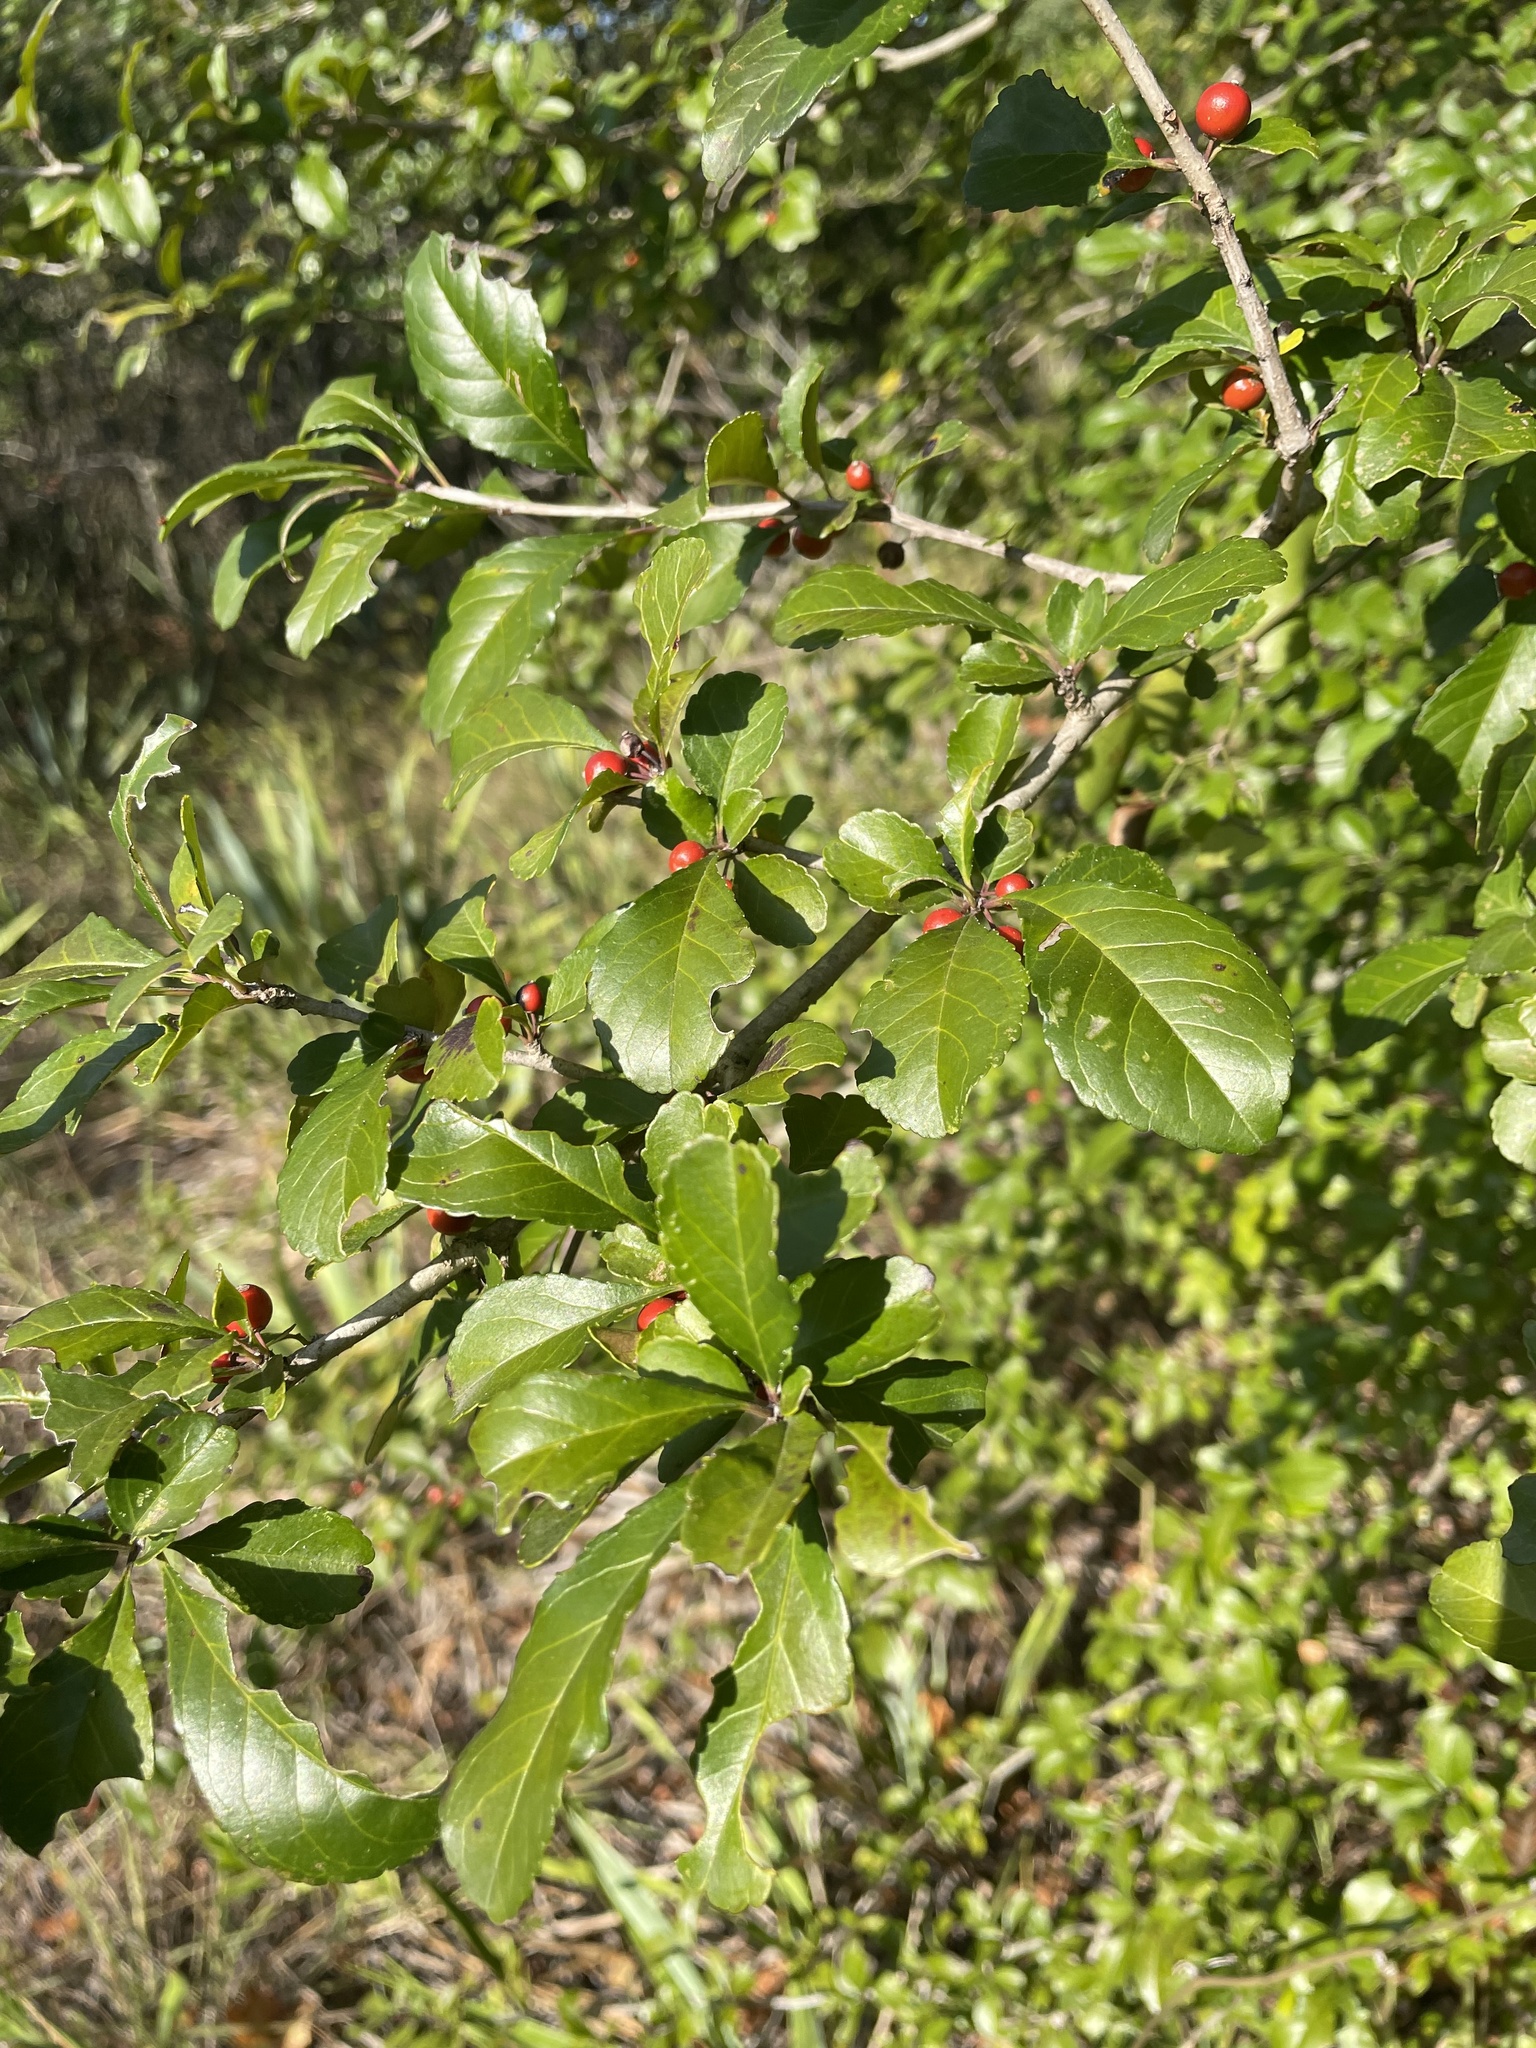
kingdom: Plantae
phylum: Tracheophyta
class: Magnoliopsida
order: Aquifoliales
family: Aquifoliaceae
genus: Ilex
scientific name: Ilex decidua
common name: Possum-haw
